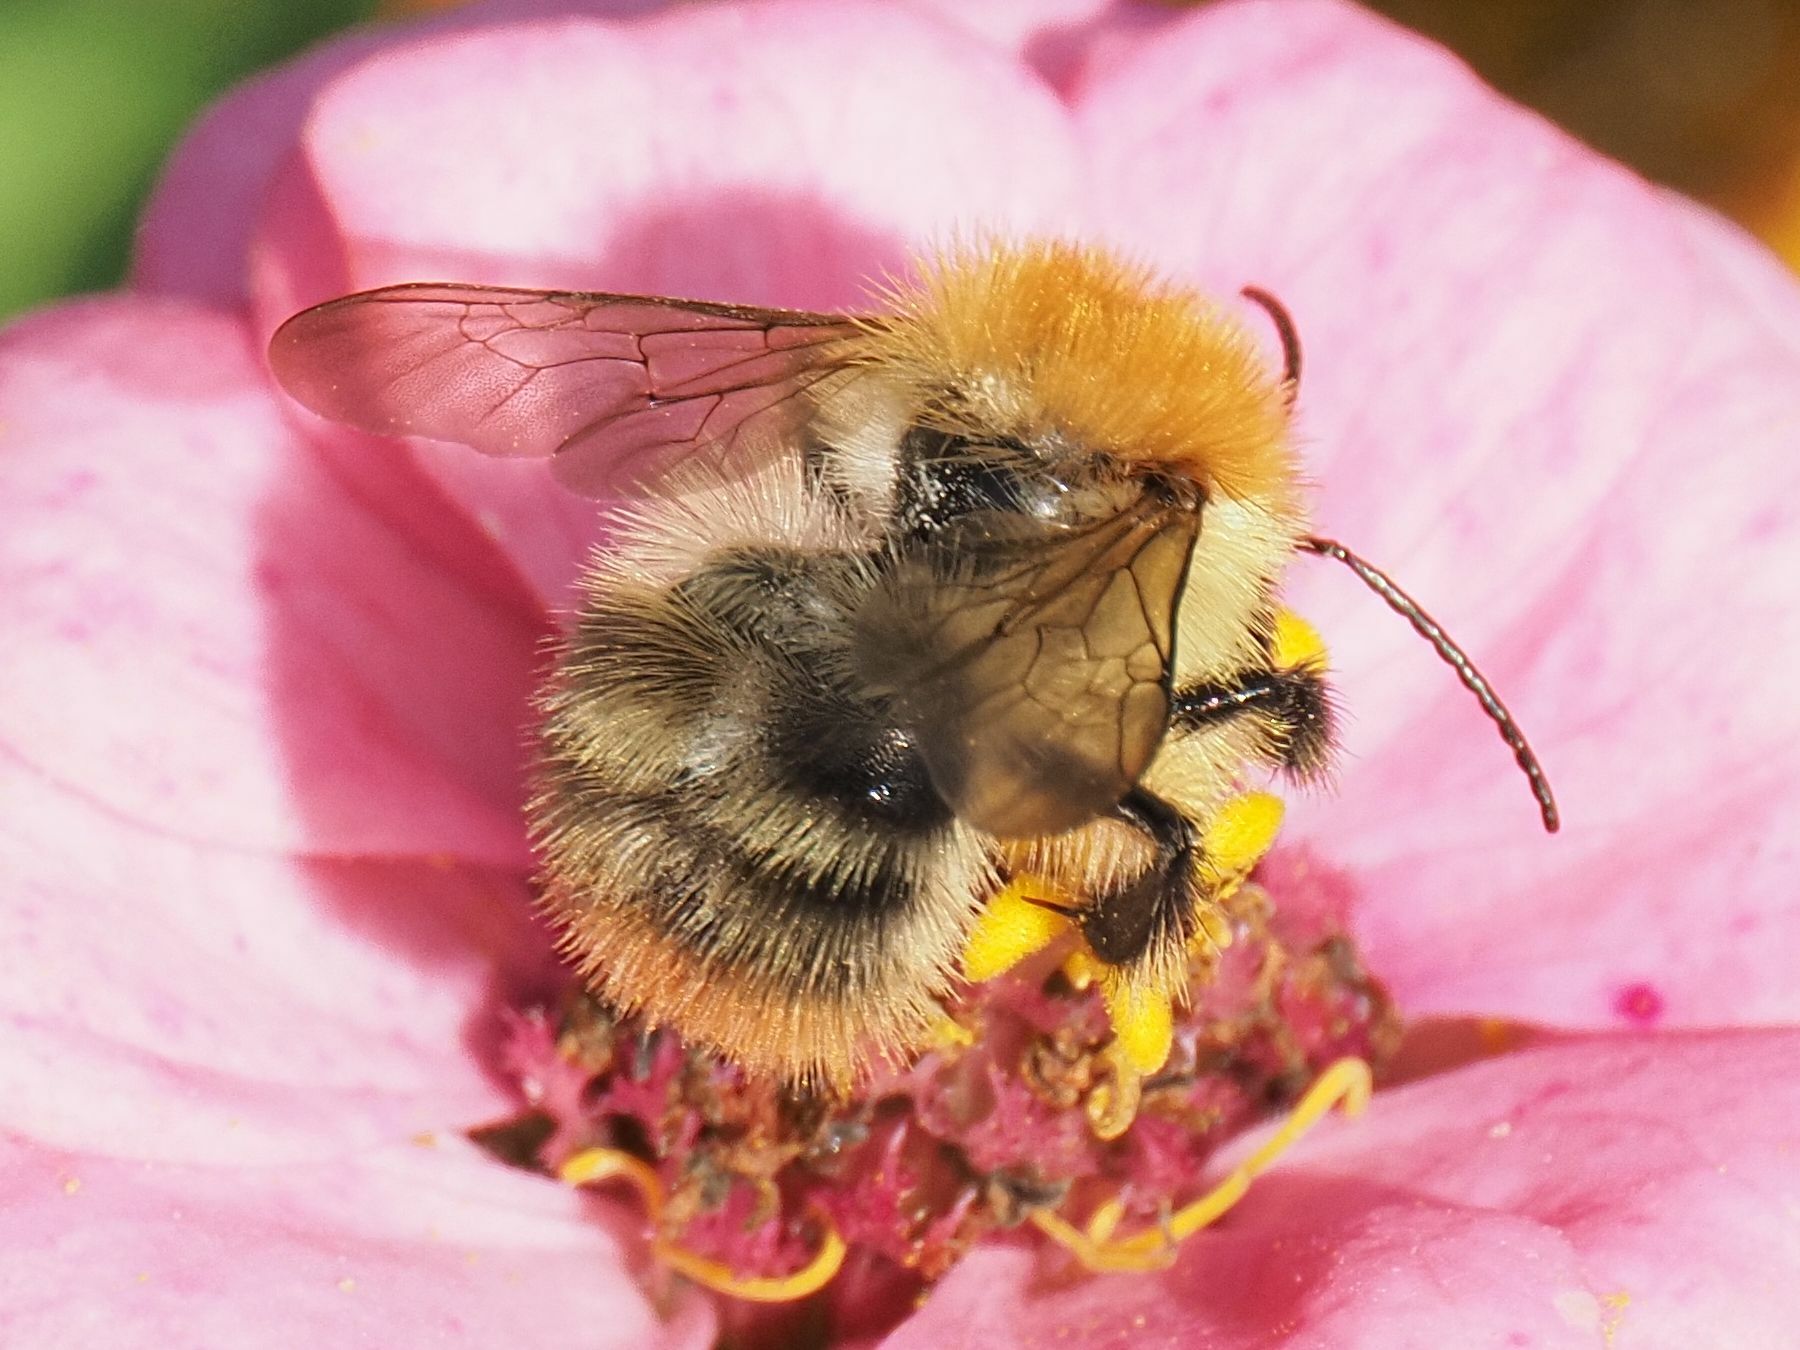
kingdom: Animalia
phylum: Arthropoda
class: Insecta
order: Hymenoptera
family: Apidae
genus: Bombus
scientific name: Bombus pascuorum
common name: Common carder bee
